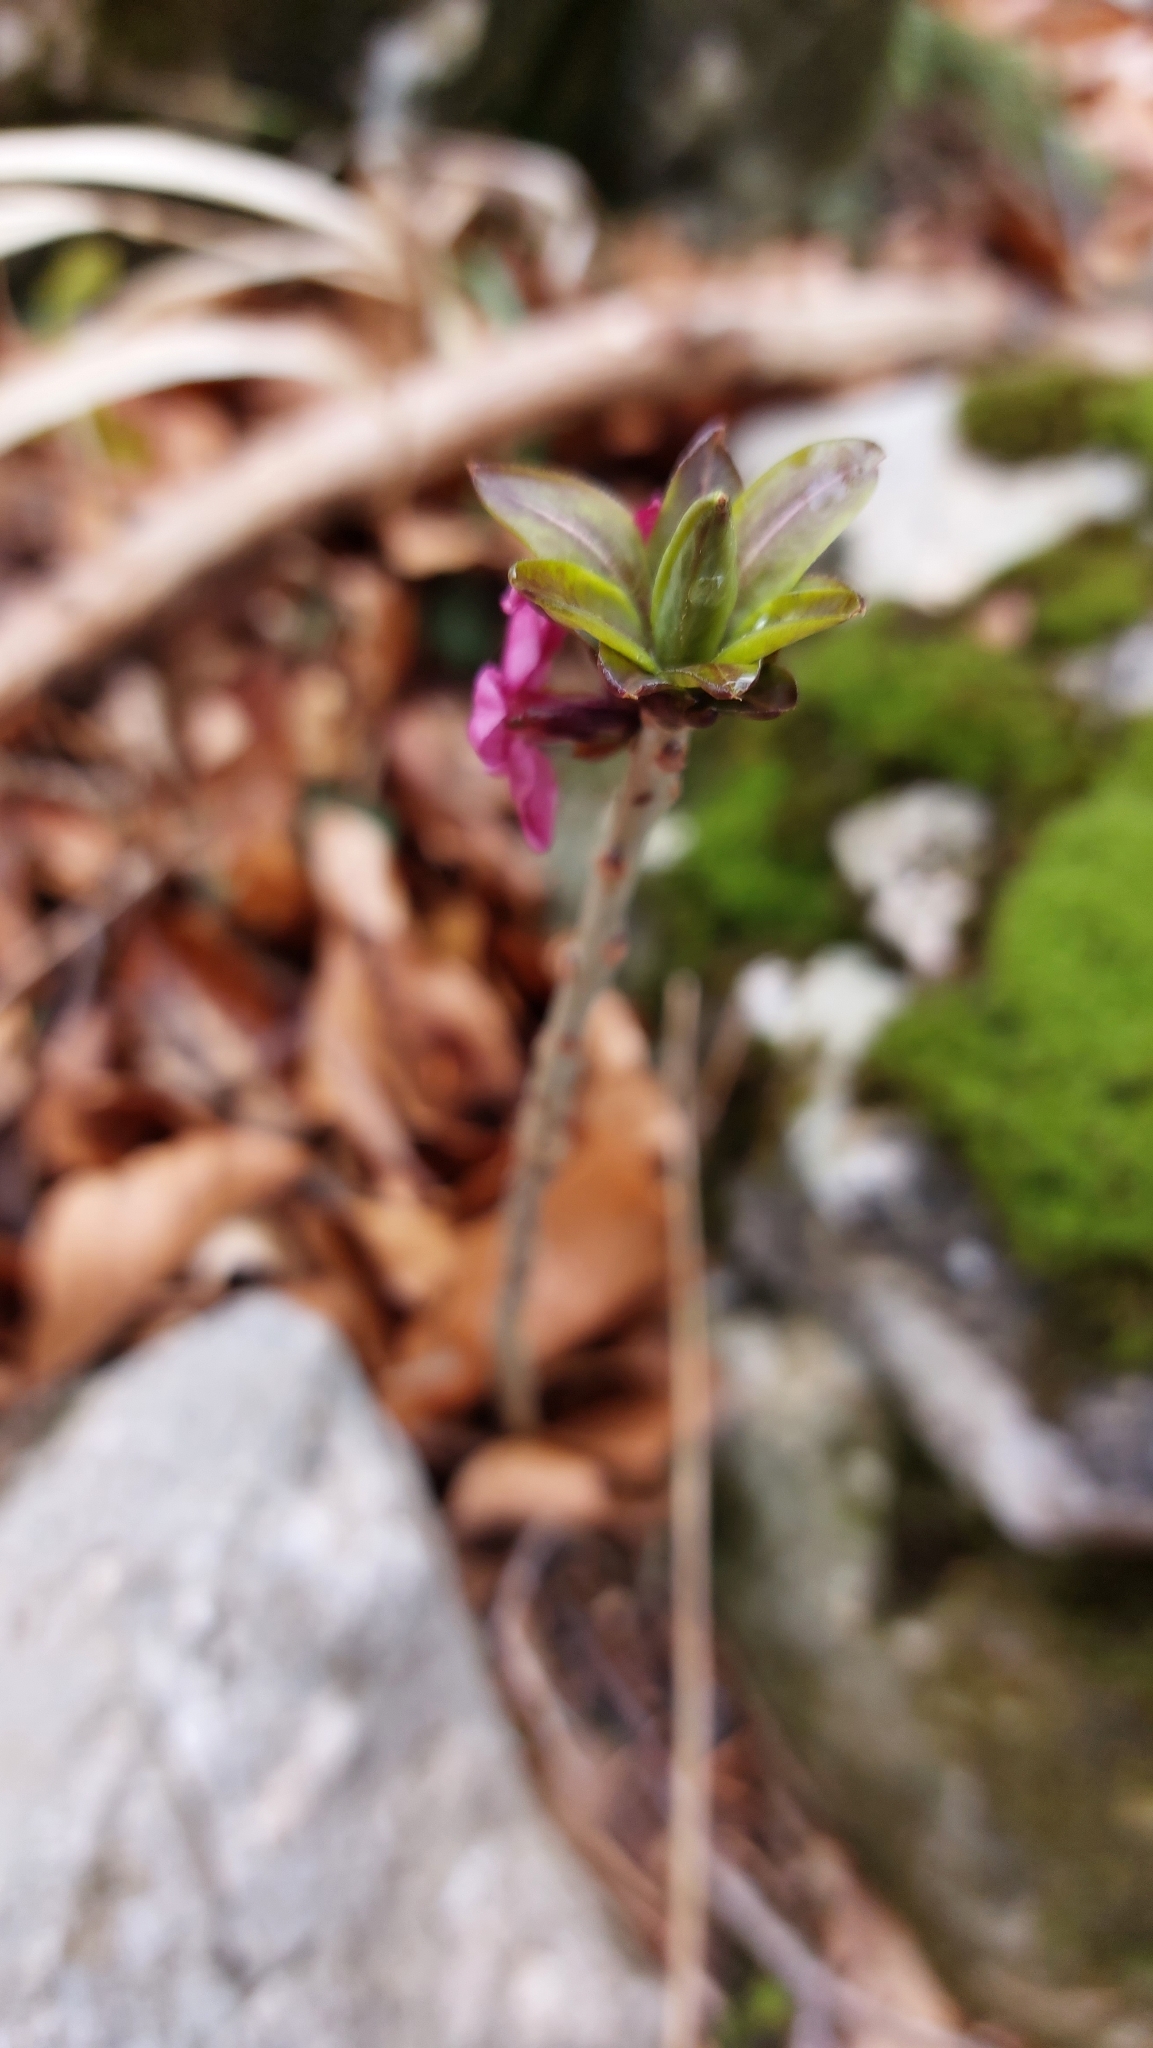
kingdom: Plantae
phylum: Tracheophyta
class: Magnoliopsida
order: Malvales
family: Thymelaeaceae
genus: Daphne
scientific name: Daphne mezereum
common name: Mezereon
